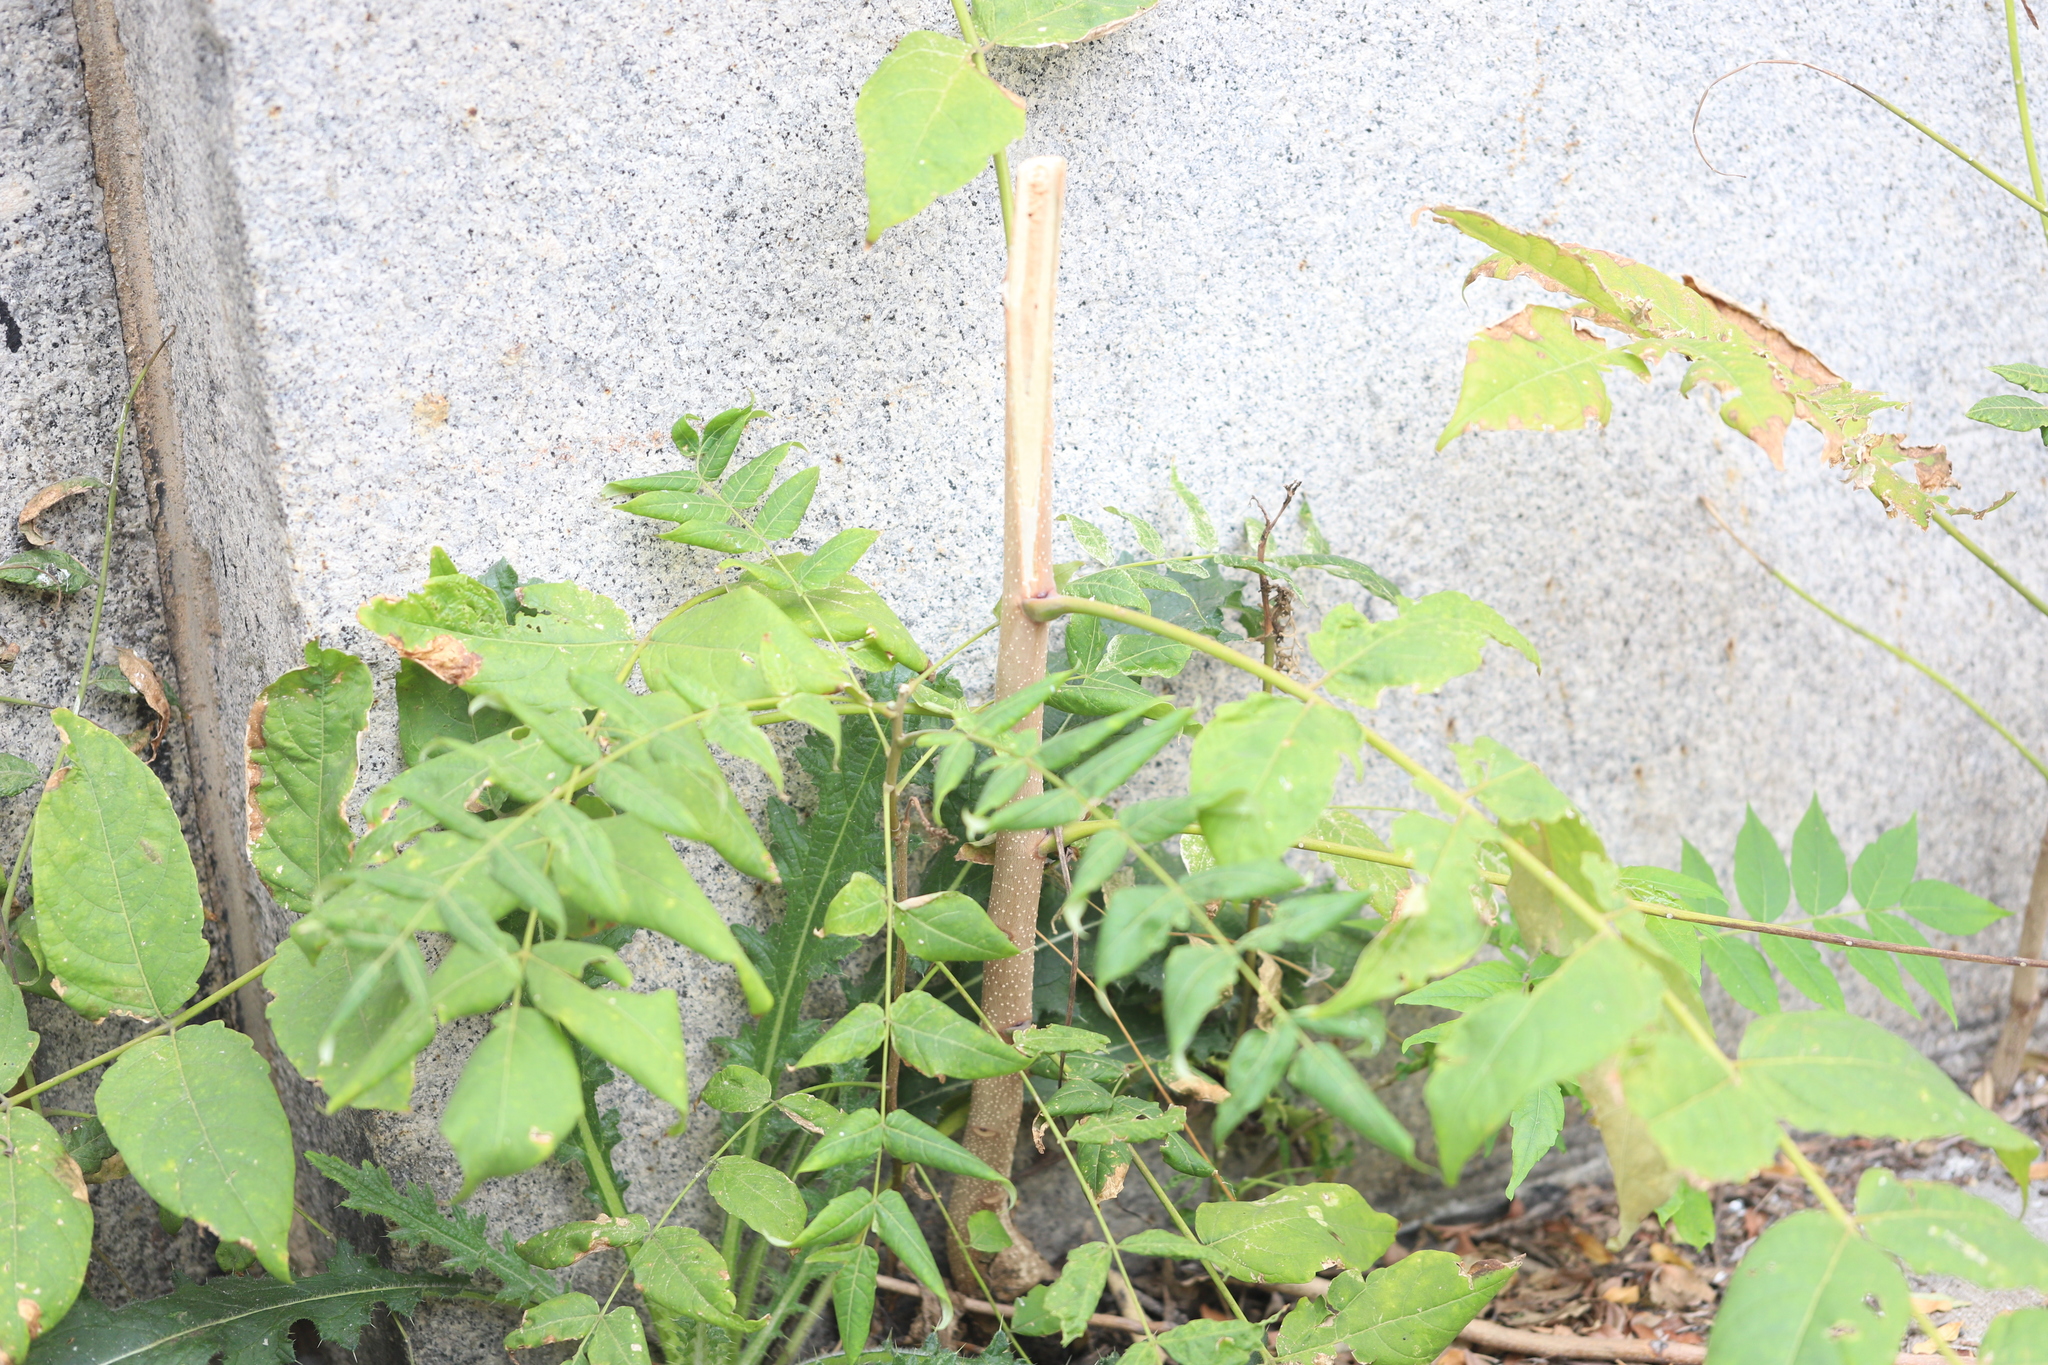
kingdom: Plantae
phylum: Tracheophyta
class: Magnoliopsida
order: Sapindales
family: Simaroubaceae
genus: Ailanthus
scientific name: Ailanthus altissima
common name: Tree-of-heaven
